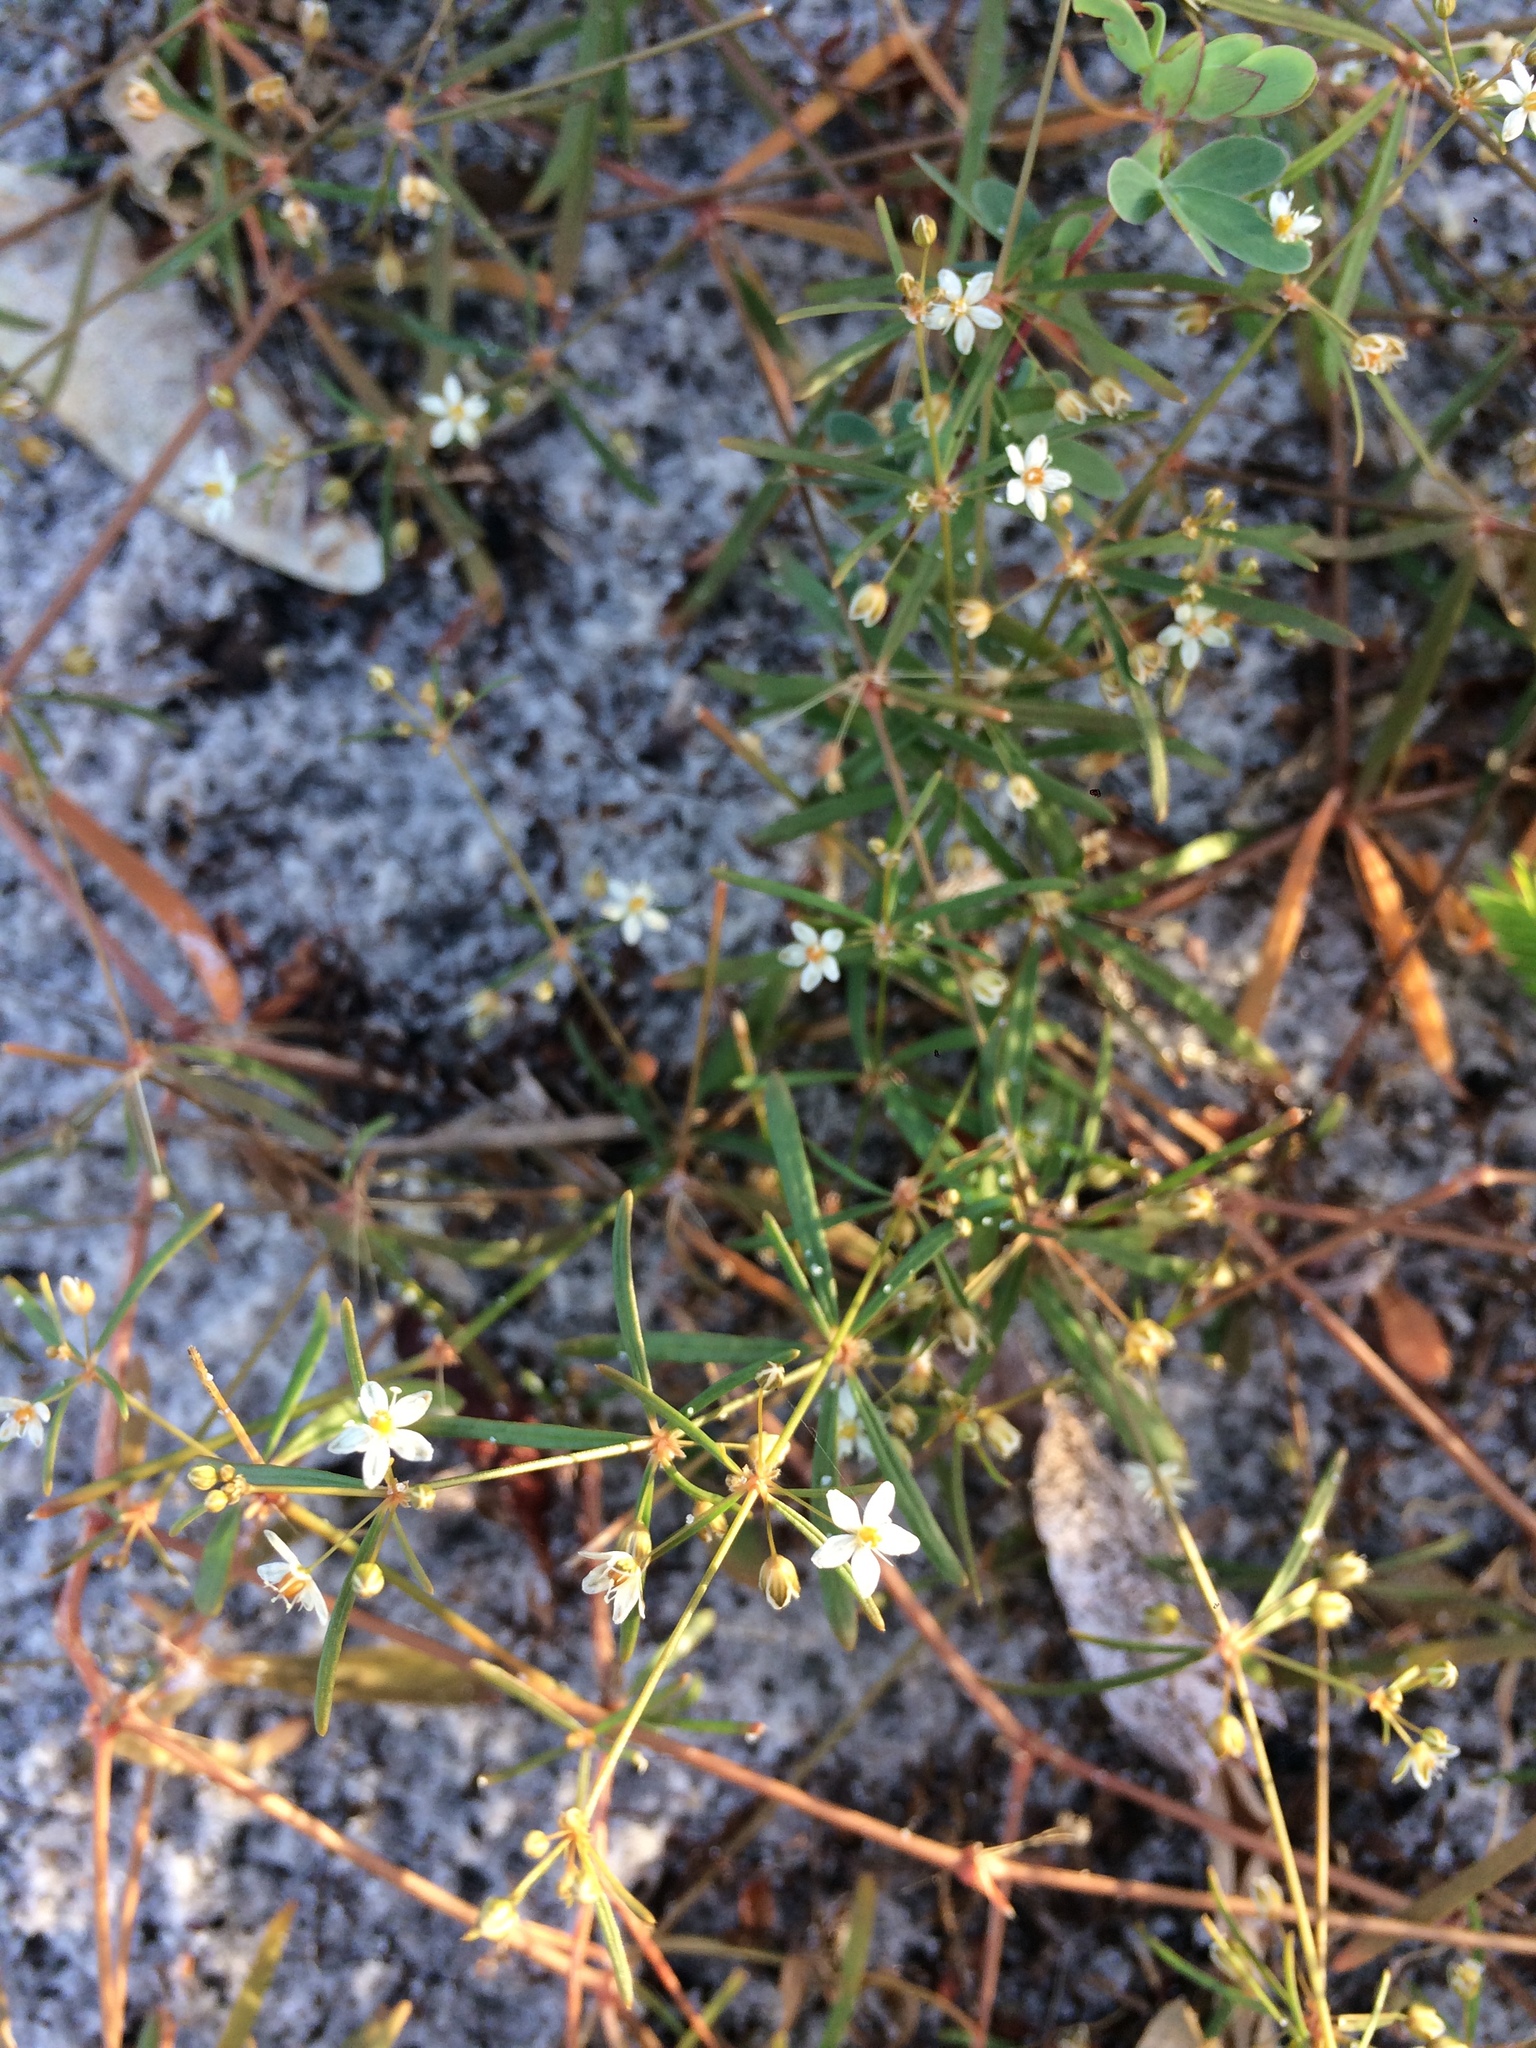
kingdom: Plantae
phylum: Tracheophyta
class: Magnoliopsida
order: Caryophyllales
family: Molluginaceae
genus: Mollugo
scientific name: Mollugo verticillata
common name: Green carpetweed
